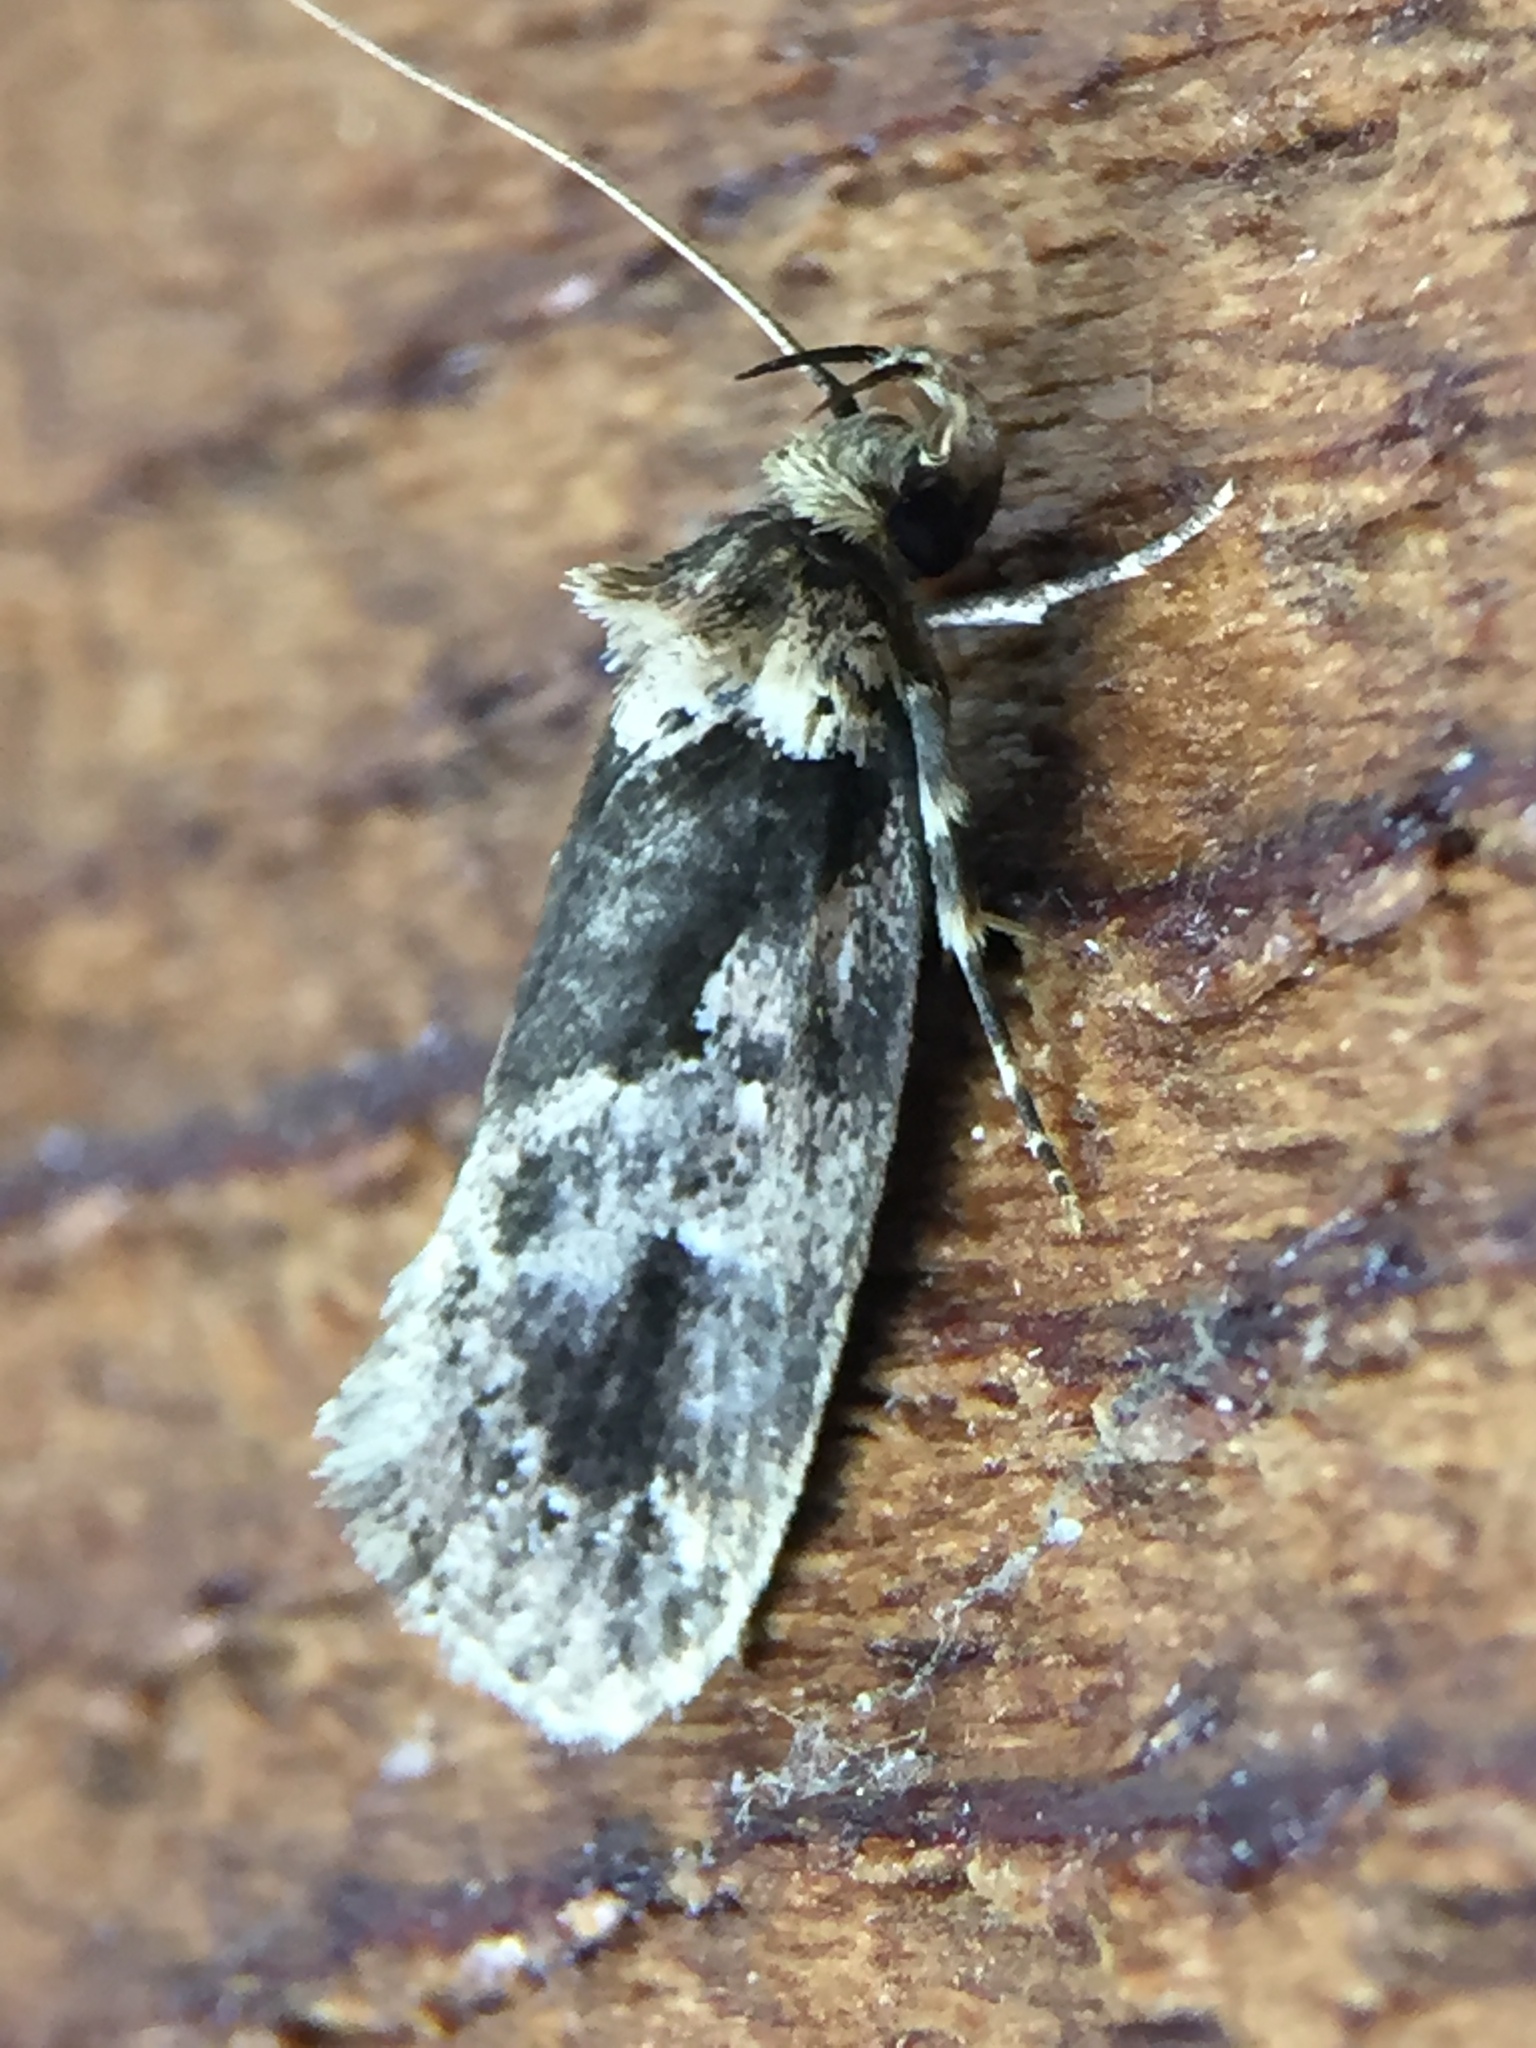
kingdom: Animalia
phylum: Arthropoda
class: Insecta
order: Lepidoptera
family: Oecophoridae
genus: Barea
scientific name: Barea consignatella
